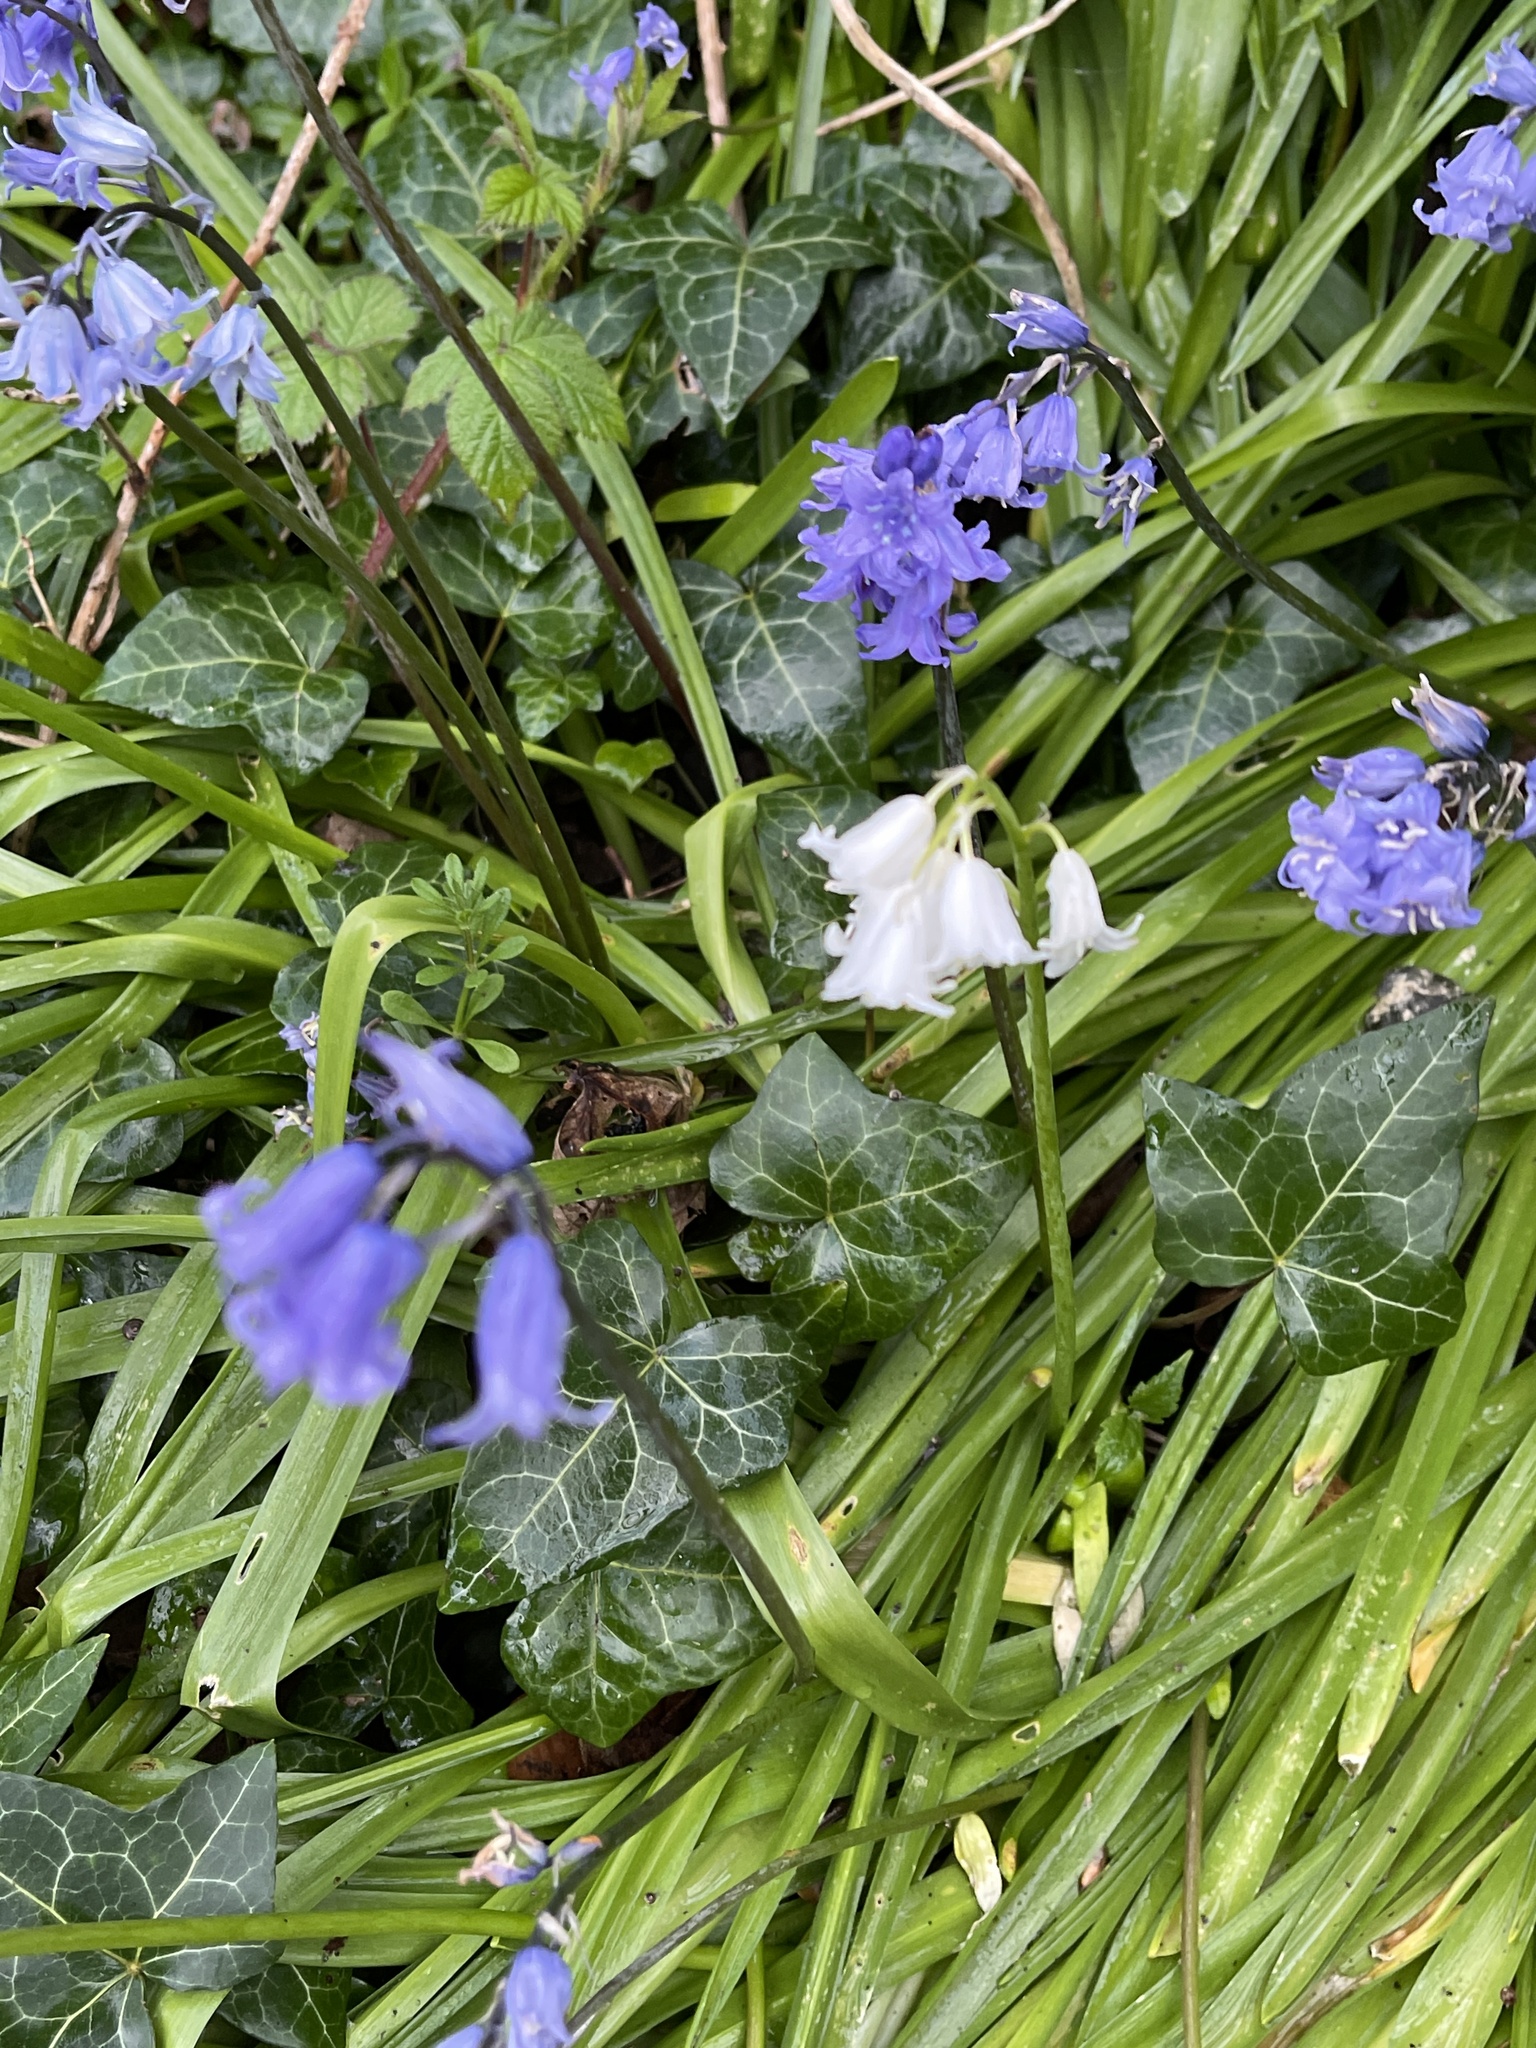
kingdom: Plantae
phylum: Tracheophyta
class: Liliopsida
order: Asparagales
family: Asparagaceae
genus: Hyacinthoides
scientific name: Hyacinthoides massartiana
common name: Hyacinthoides
